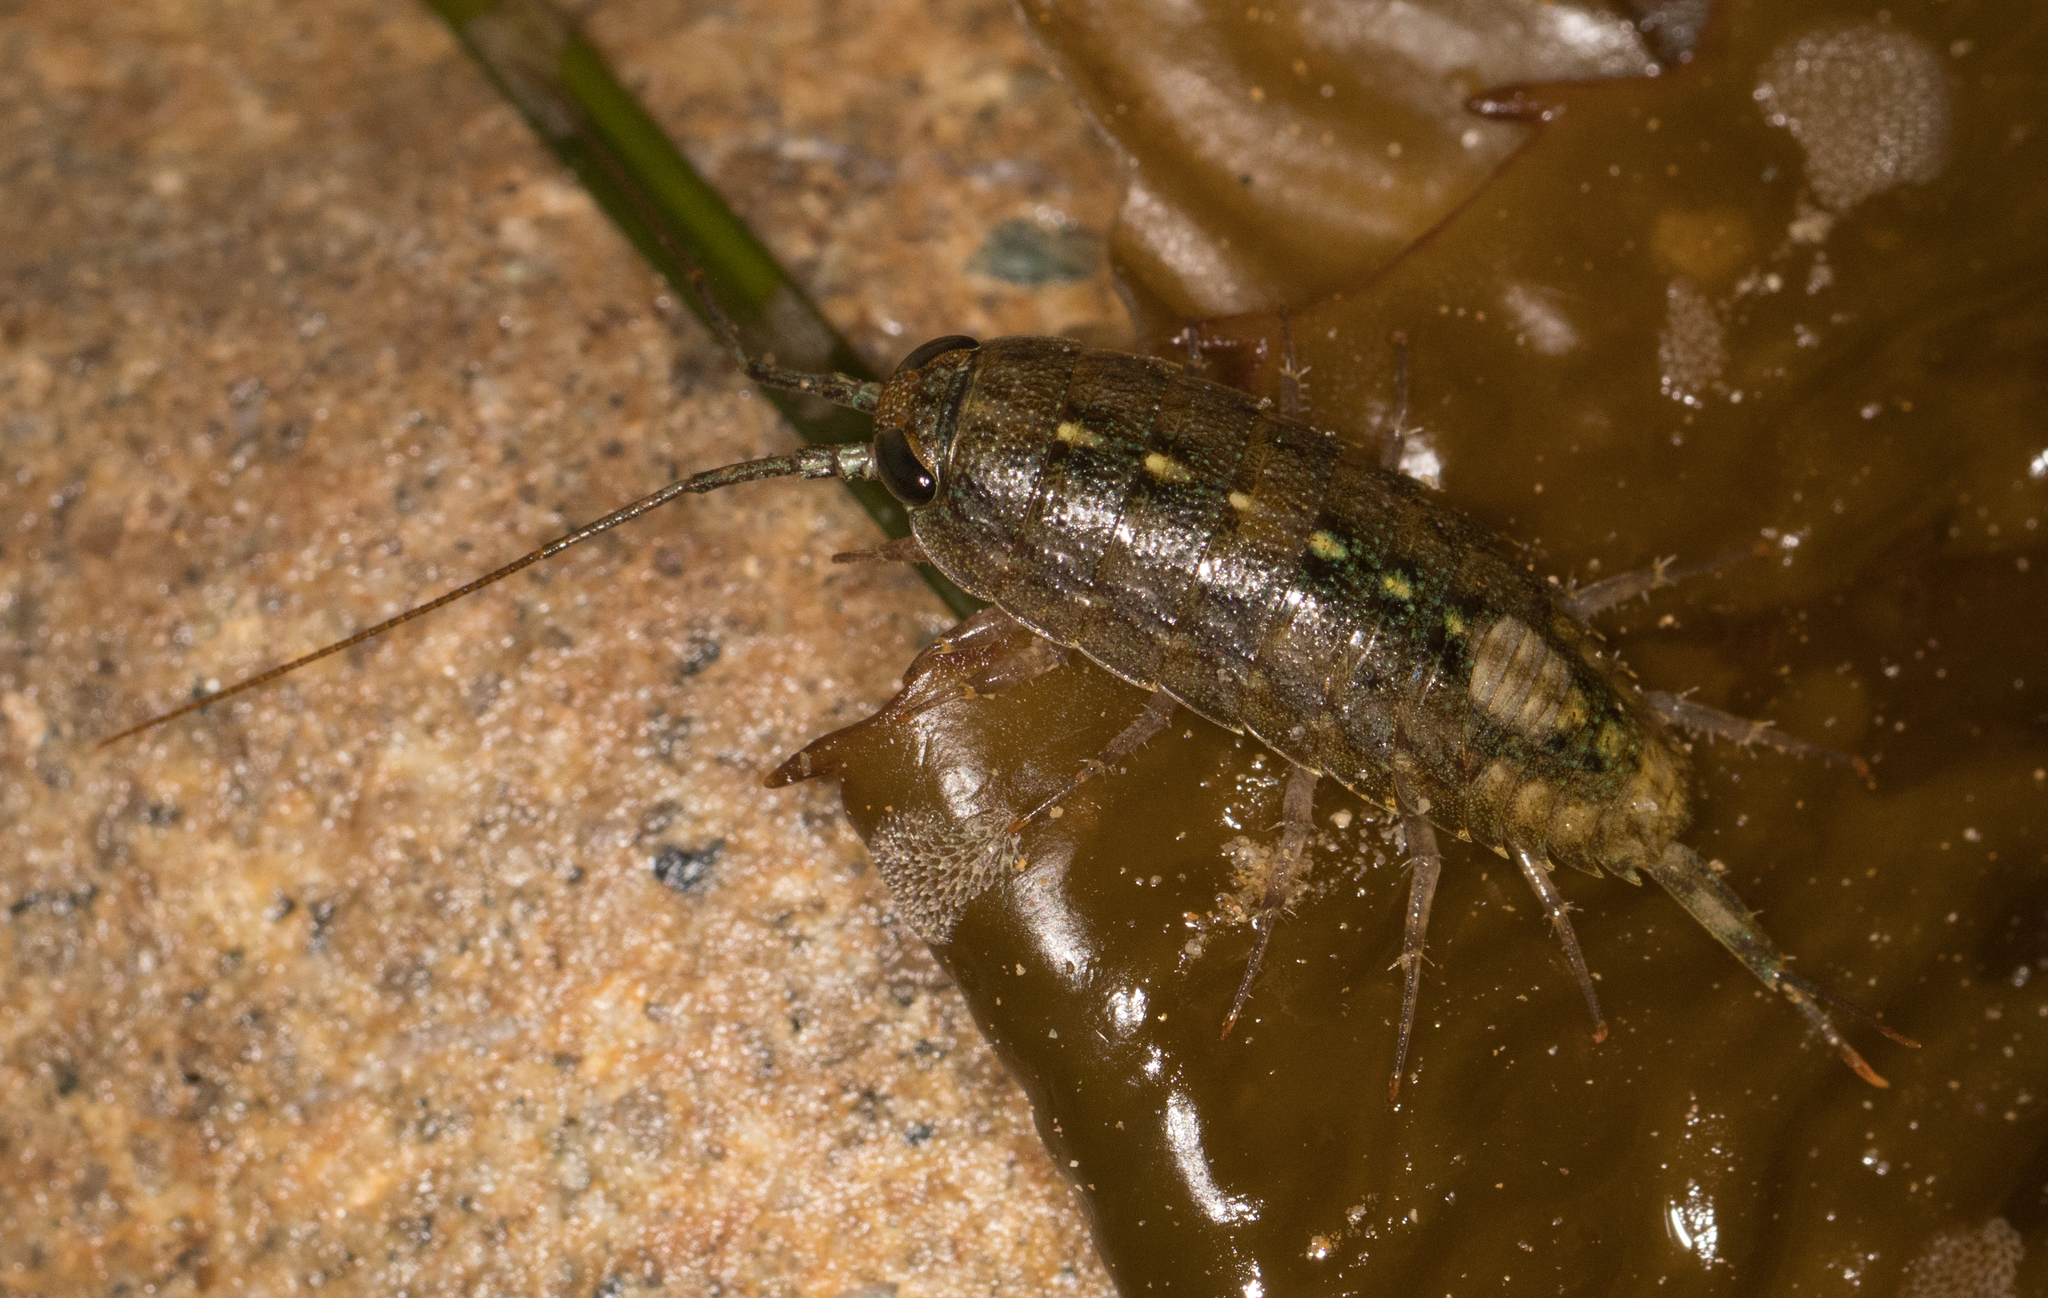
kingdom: Animalia
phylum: Arthropoda
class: Malacostraca
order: Isopoda
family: Ligiidae
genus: Ligia
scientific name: Ligia occidentalis
